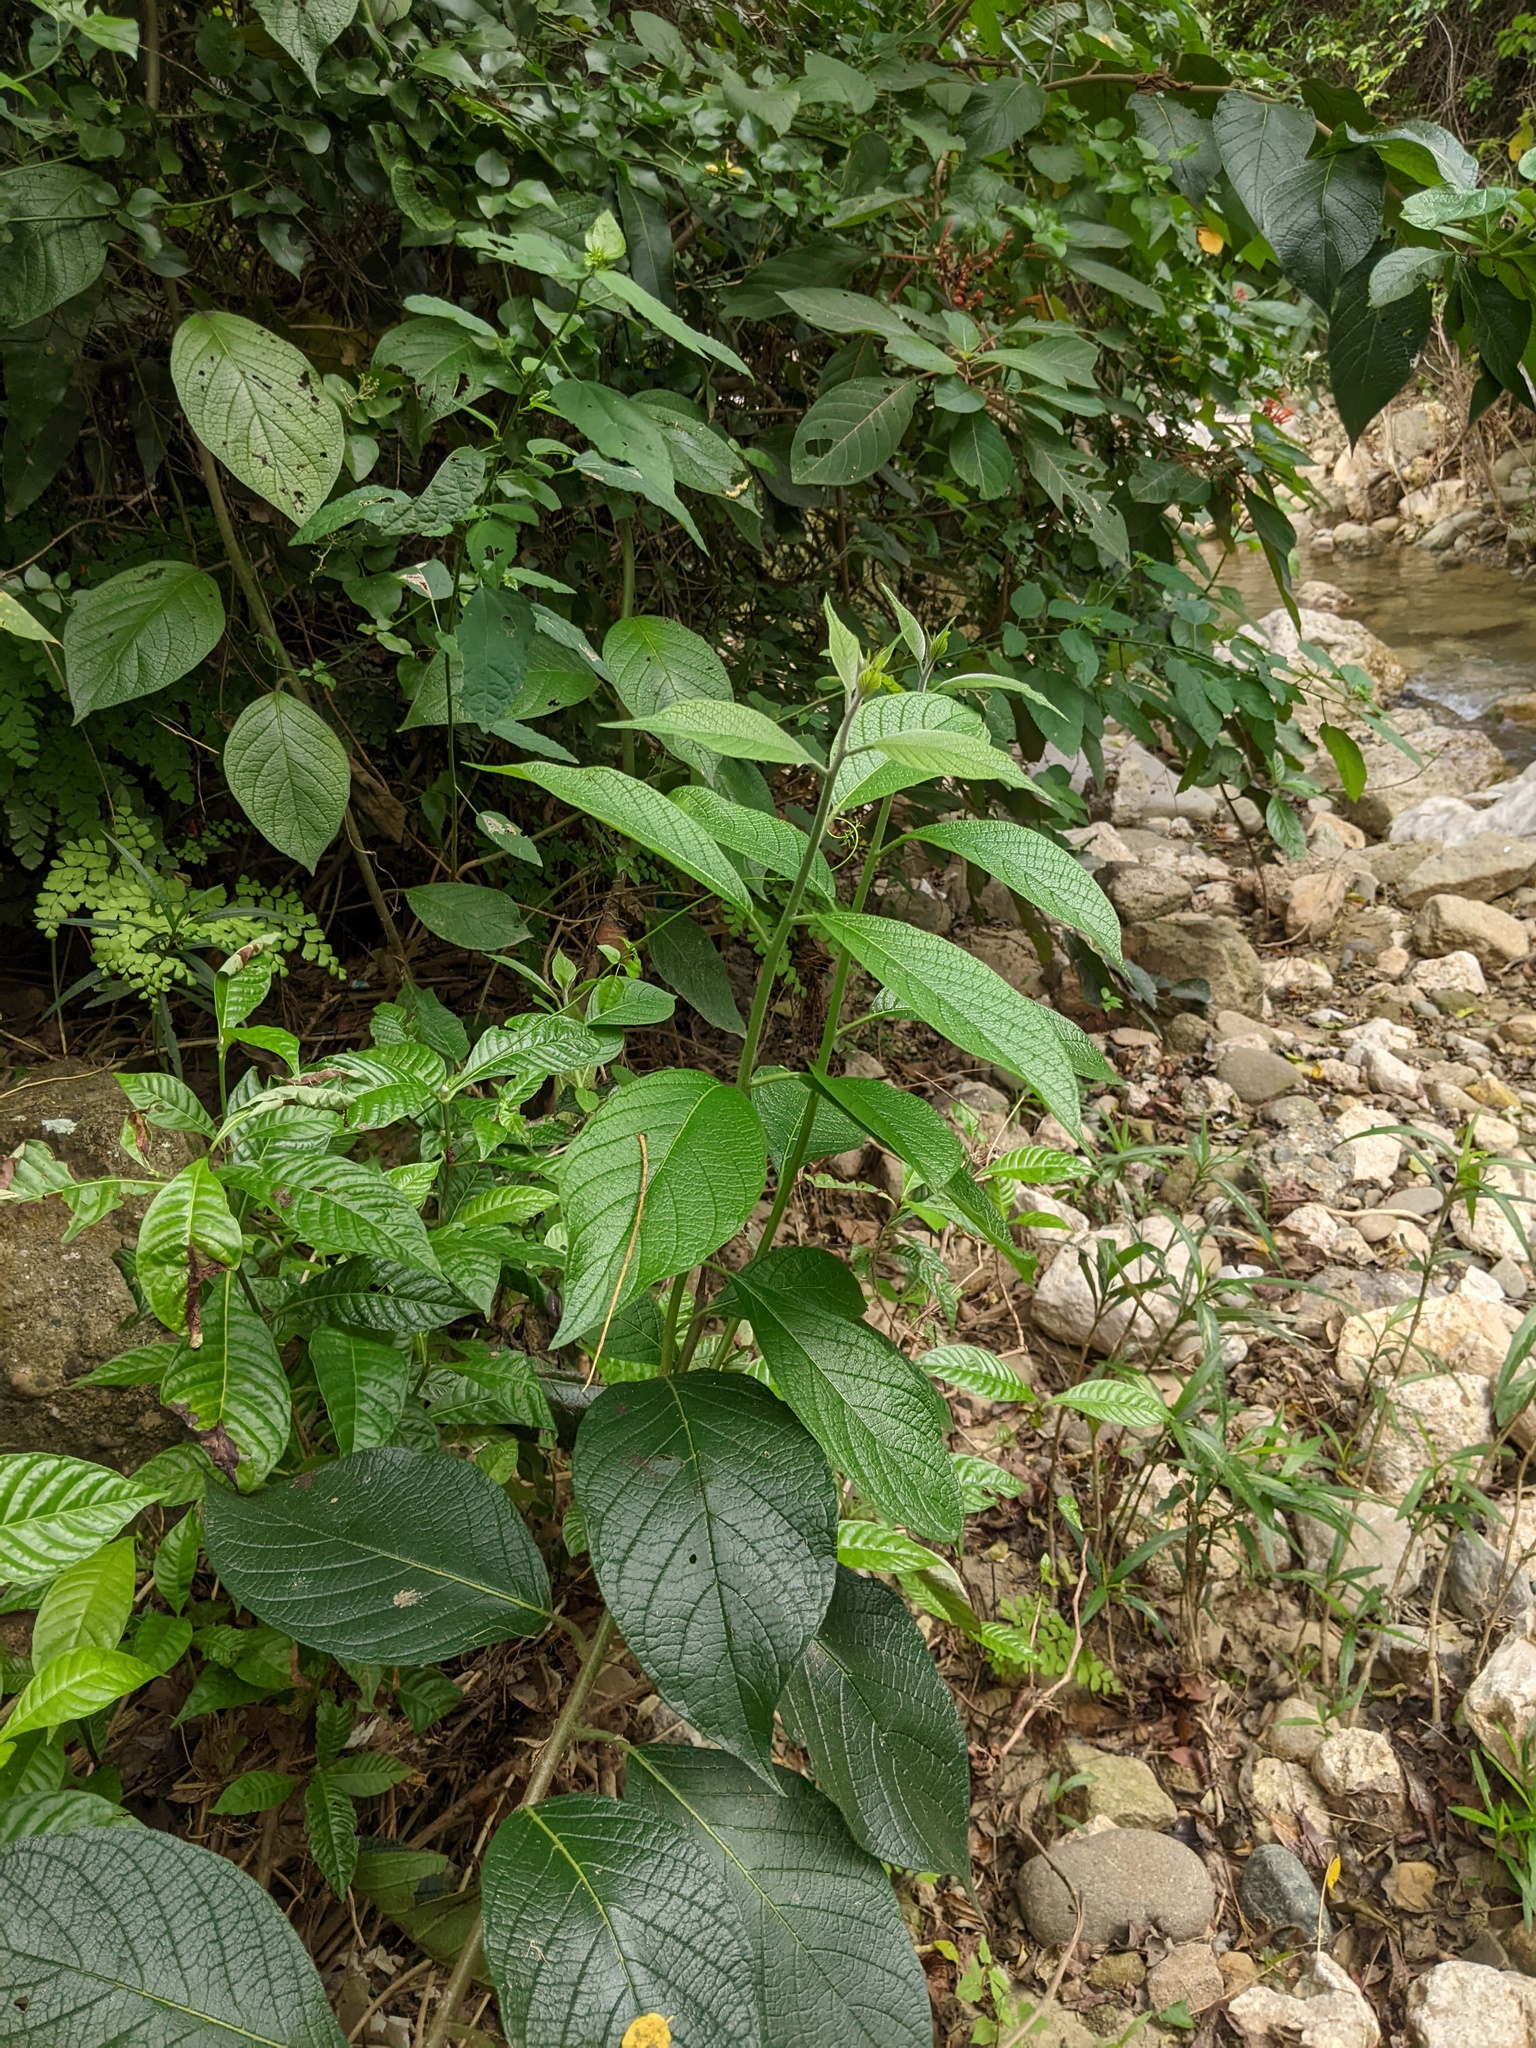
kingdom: Plantae
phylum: Tracheophyta
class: Magnoliopsida
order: Boraginales
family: Heliotropiaceae
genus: Heliotropium
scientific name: Heliotropium verdcourtii
